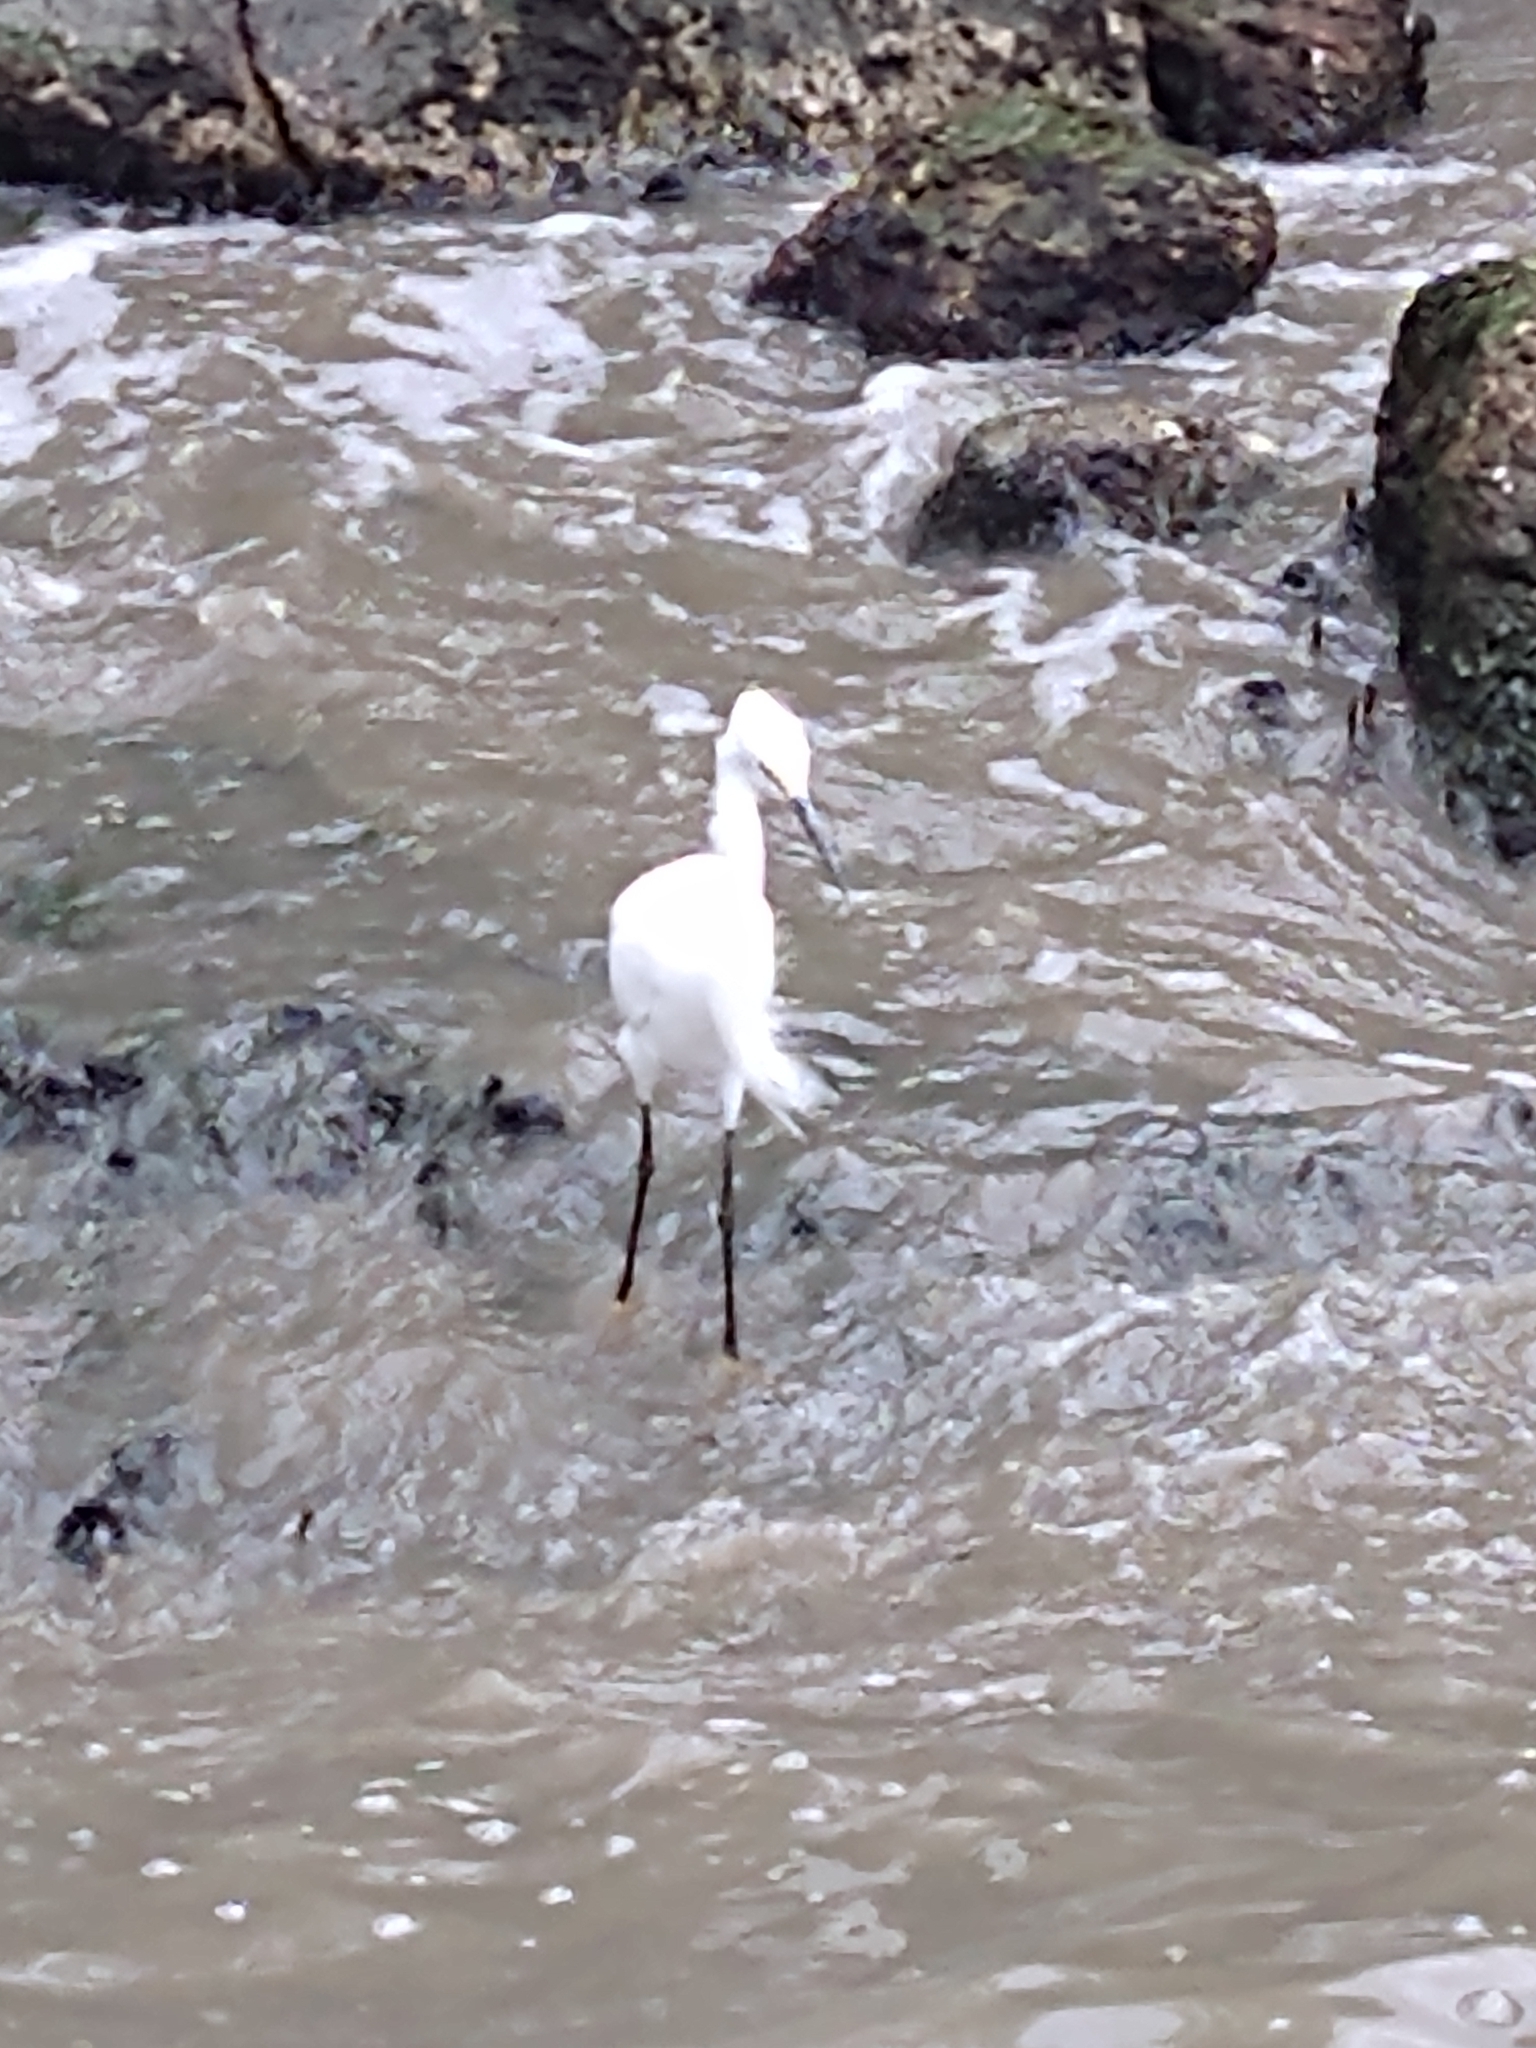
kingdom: Animalia
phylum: Chordata
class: Aves
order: Pelecaniformes
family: Ardeidae
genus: Egretta
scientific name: Egretta thula
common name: Snowy egret
